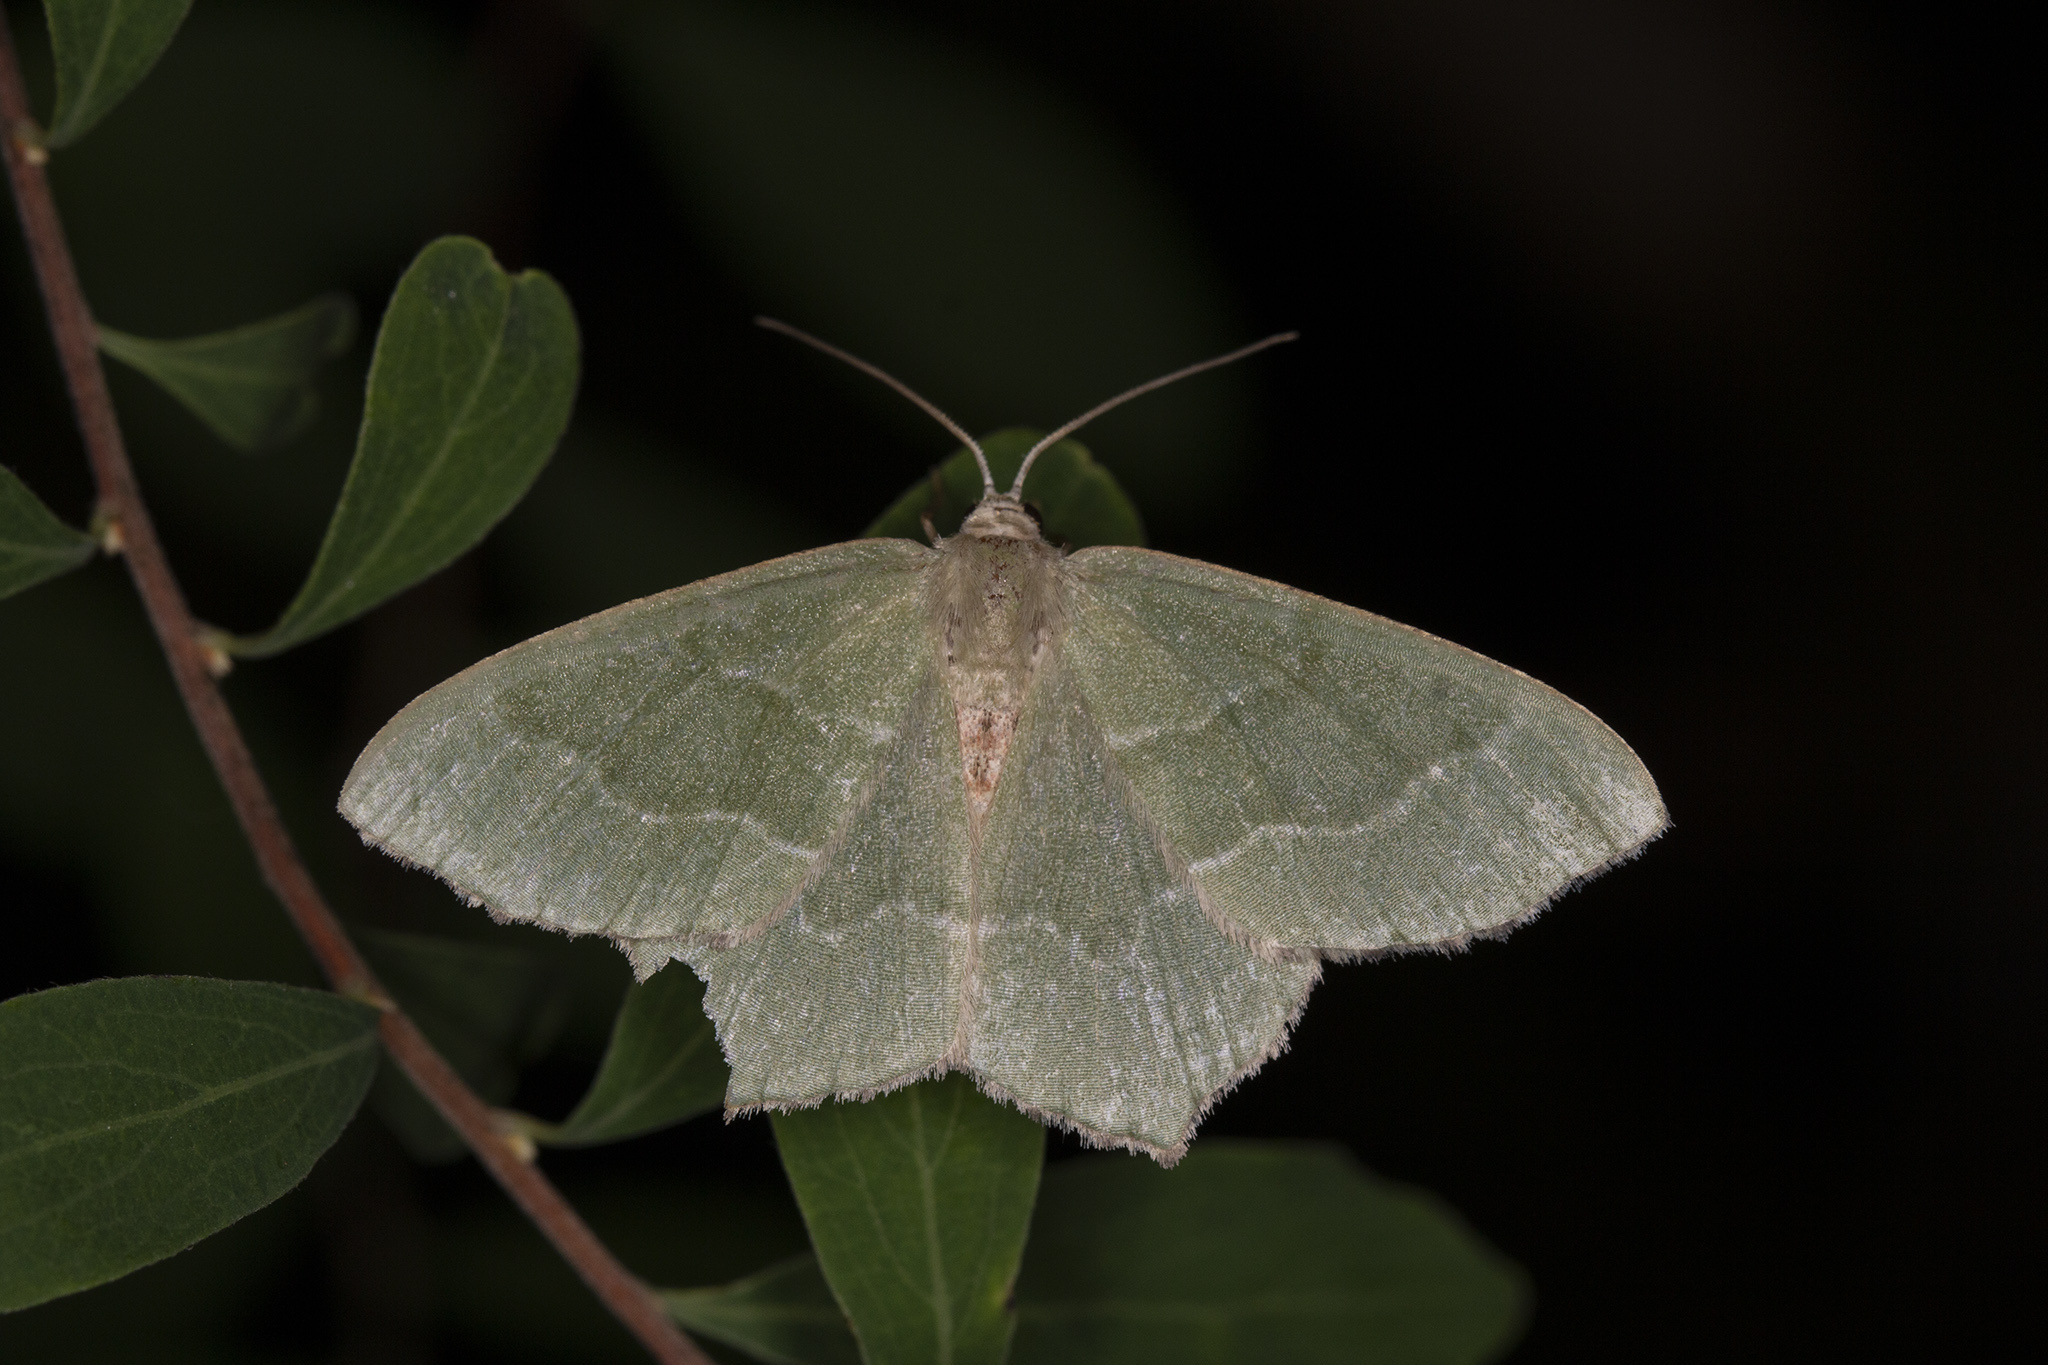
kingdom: Animalia
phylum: Arthropoda
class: Insecta
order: Lepidoptera
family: Geometridae
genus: Hemithea
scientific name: Hemithea aestivaria
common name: Common emerald
